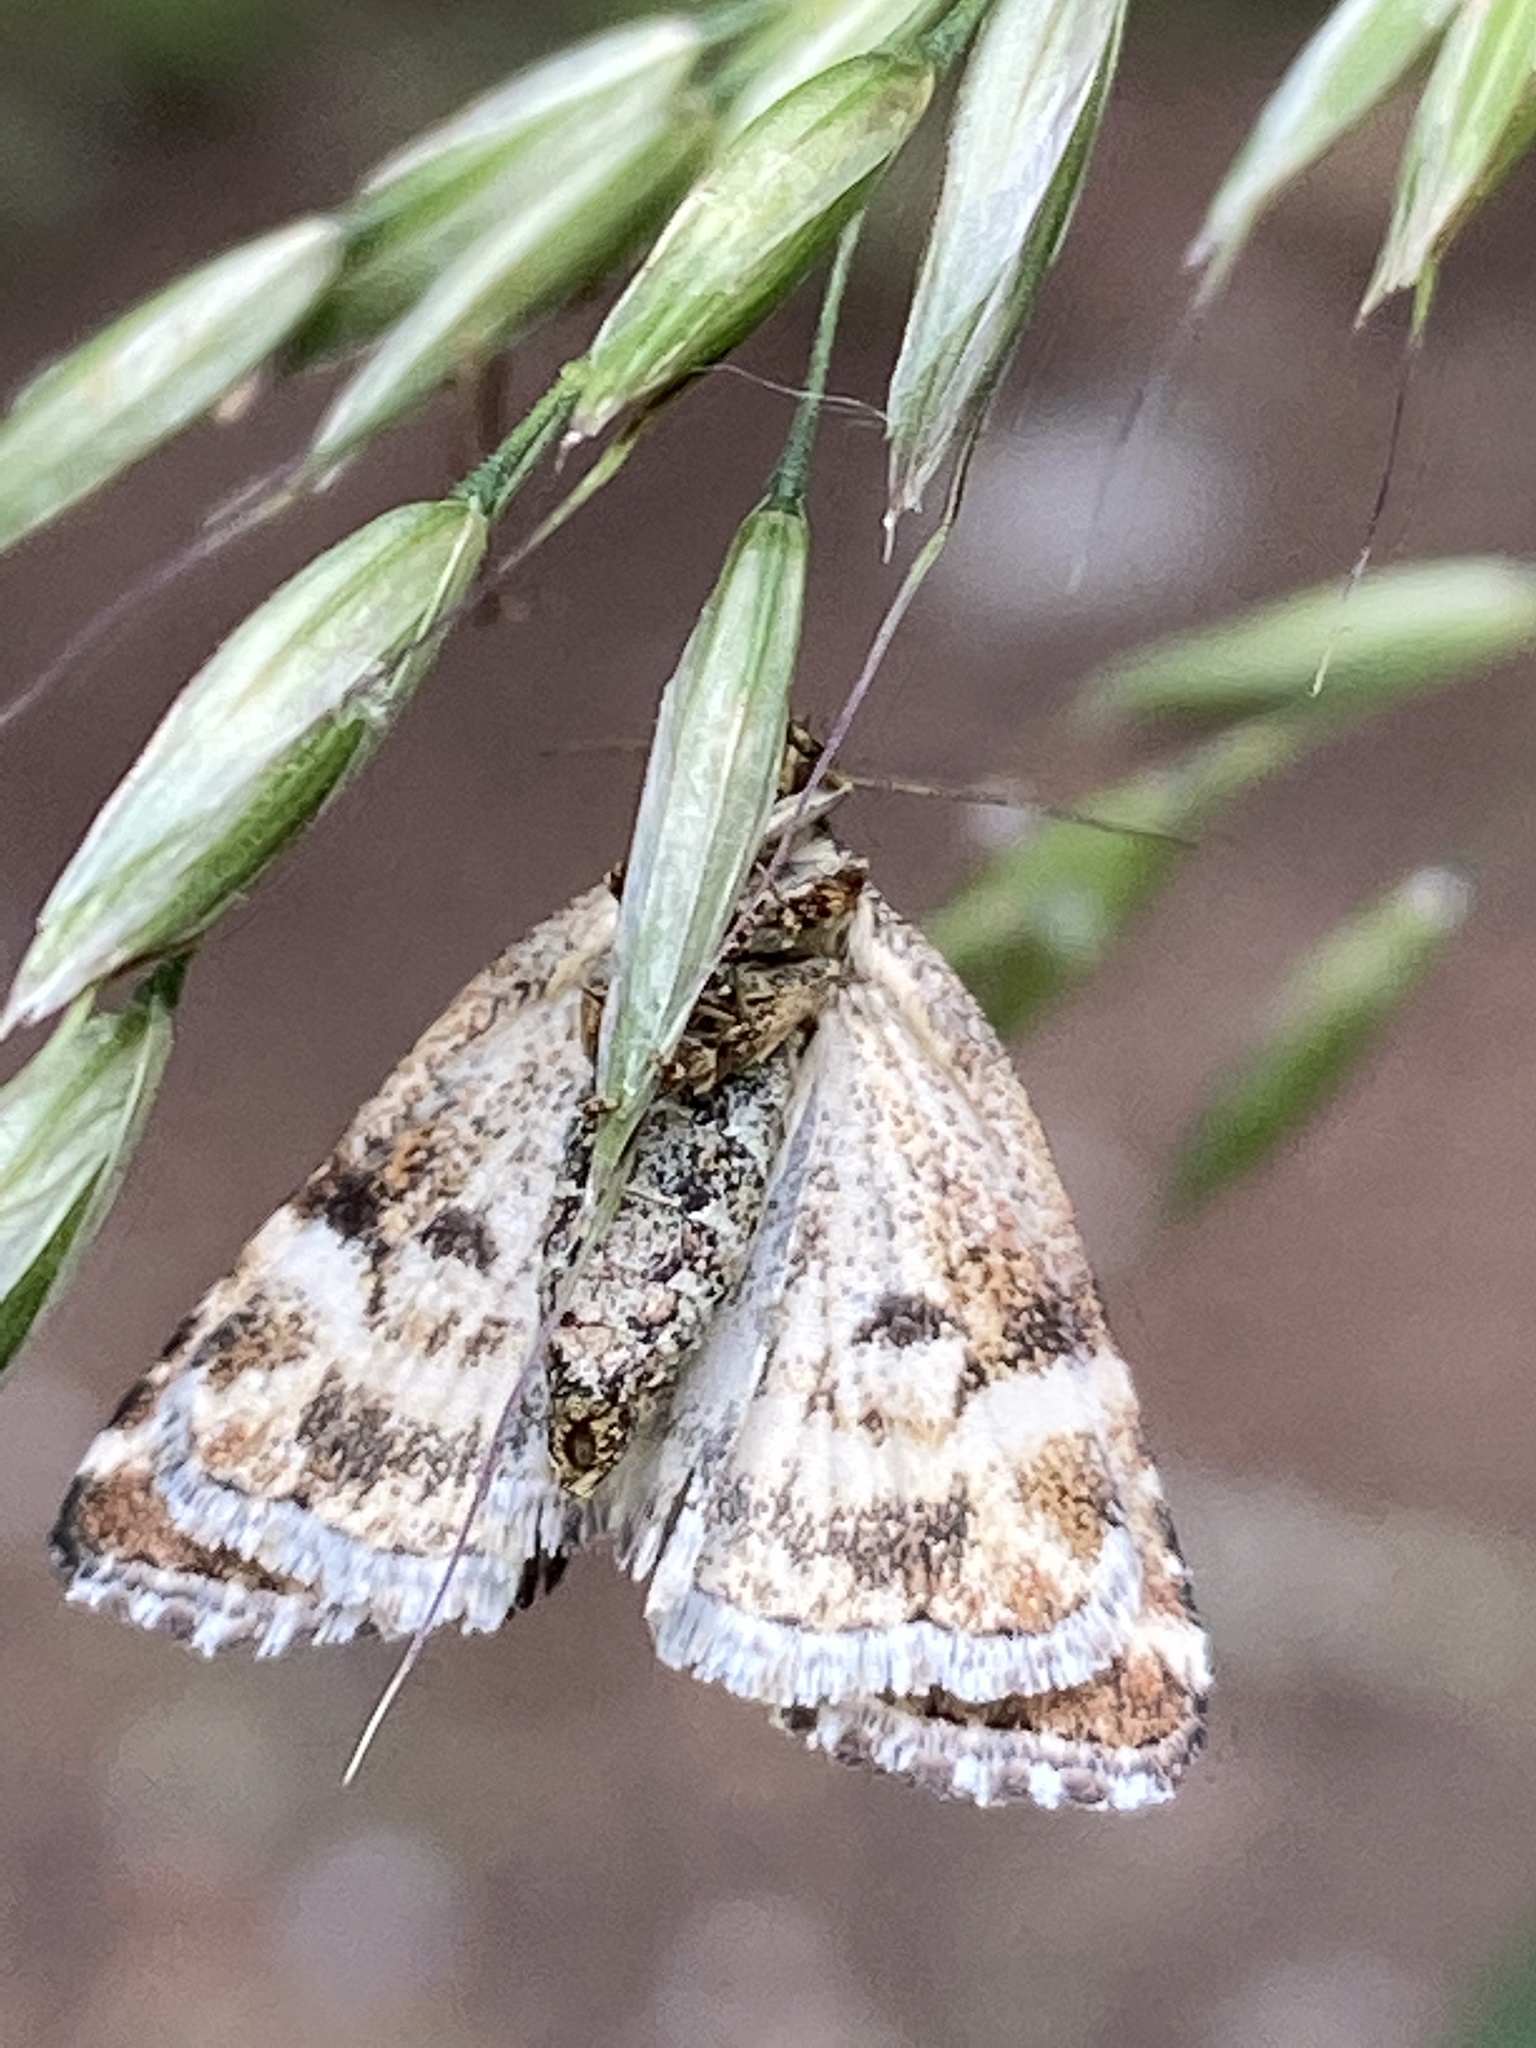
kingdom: Animalia
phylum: Arthropoda
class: Insecta
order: Lepidoptera
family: Noctuidae
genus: Deltote
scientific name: Deltote deceptoria
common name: Pretty marbled
